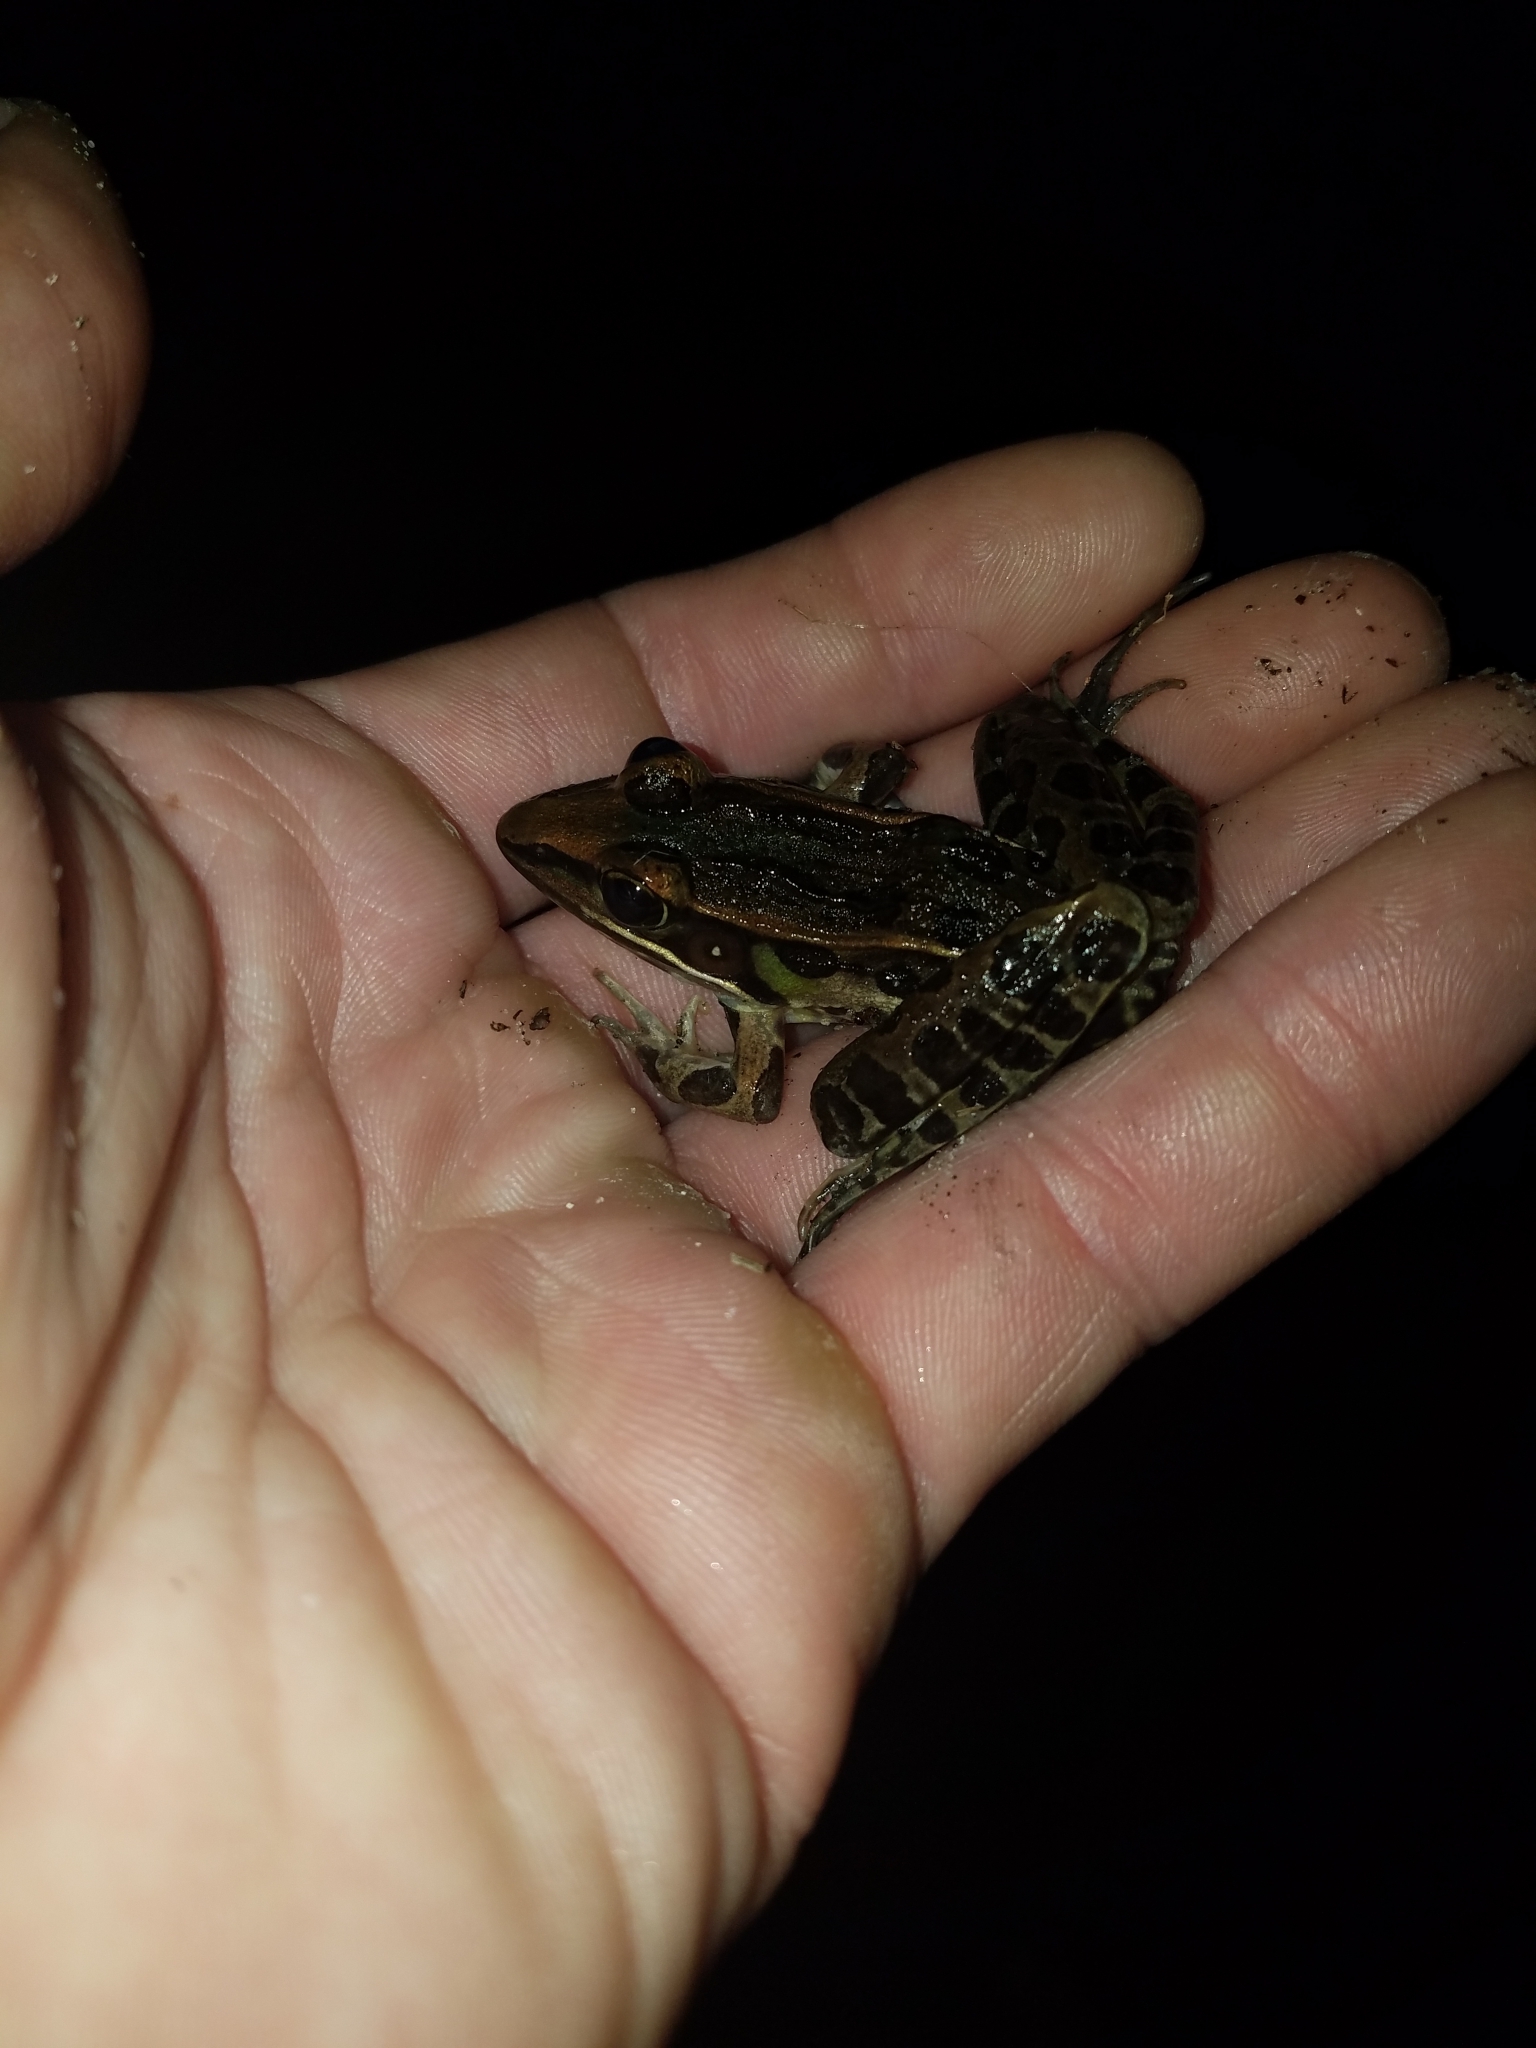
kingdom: Animalia
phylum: Chordata
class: Amphibia
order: Anura
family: Ranidae
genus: Lithobates
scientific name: Lithobates sphenocephalus
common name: Southern leopard frog
